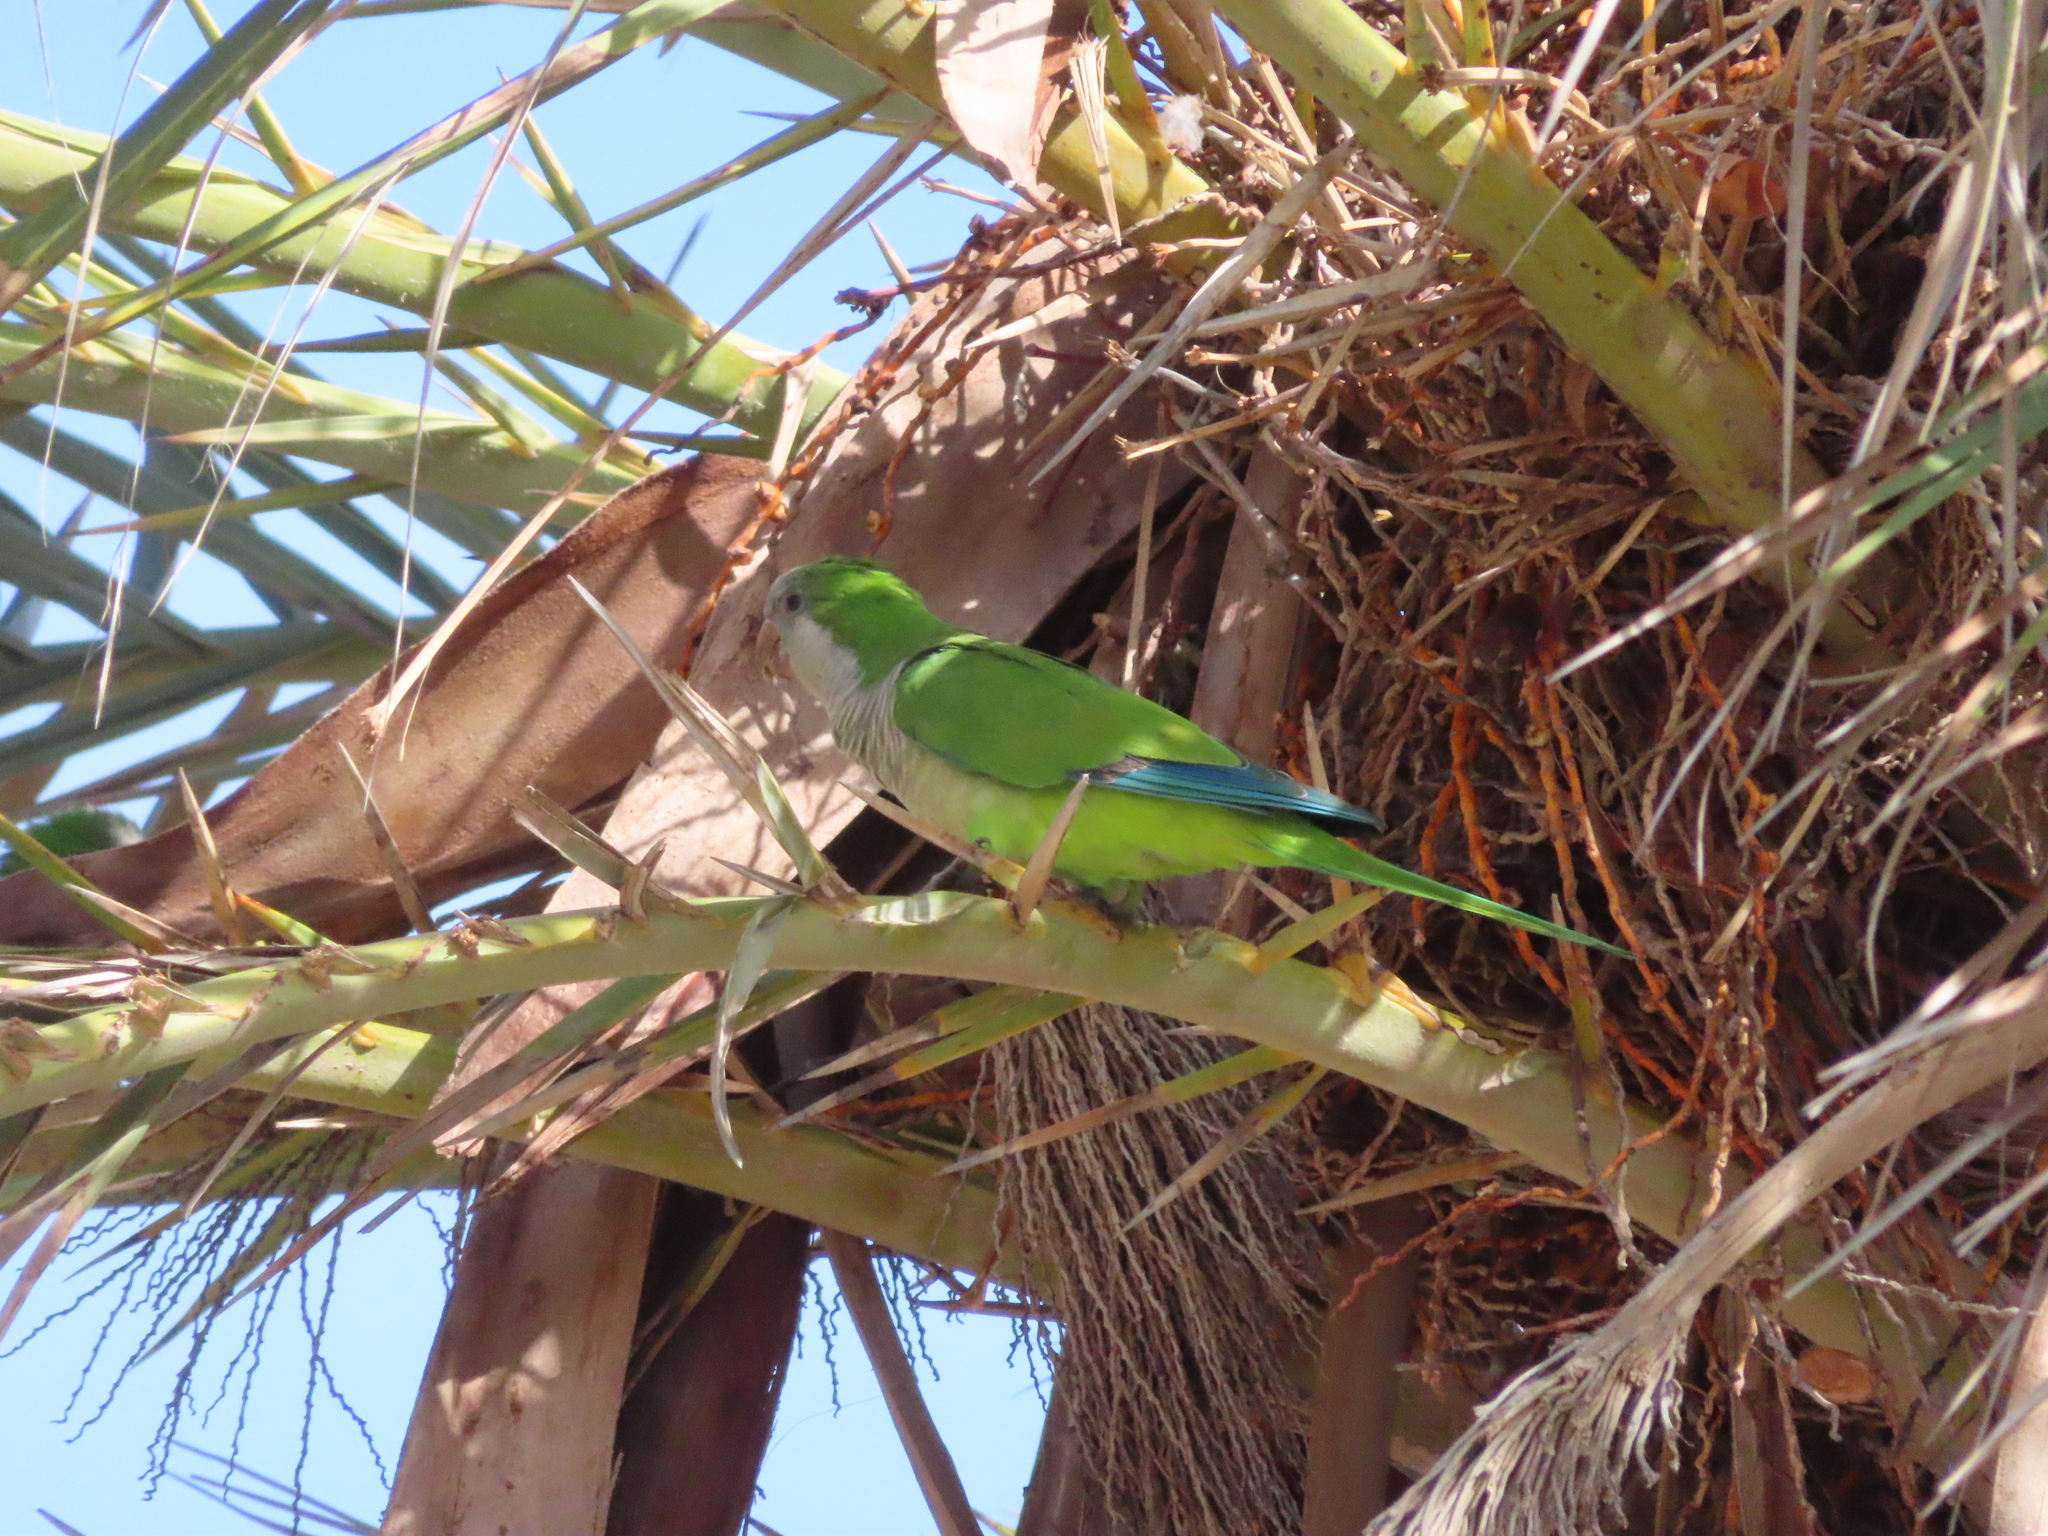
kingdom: Animalia
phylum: Chordata
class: Aves
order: Psittaciformes
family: Psittacidae
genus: Myiopsitta
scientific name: Myiopsitta monachus
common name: Monk parakeet
